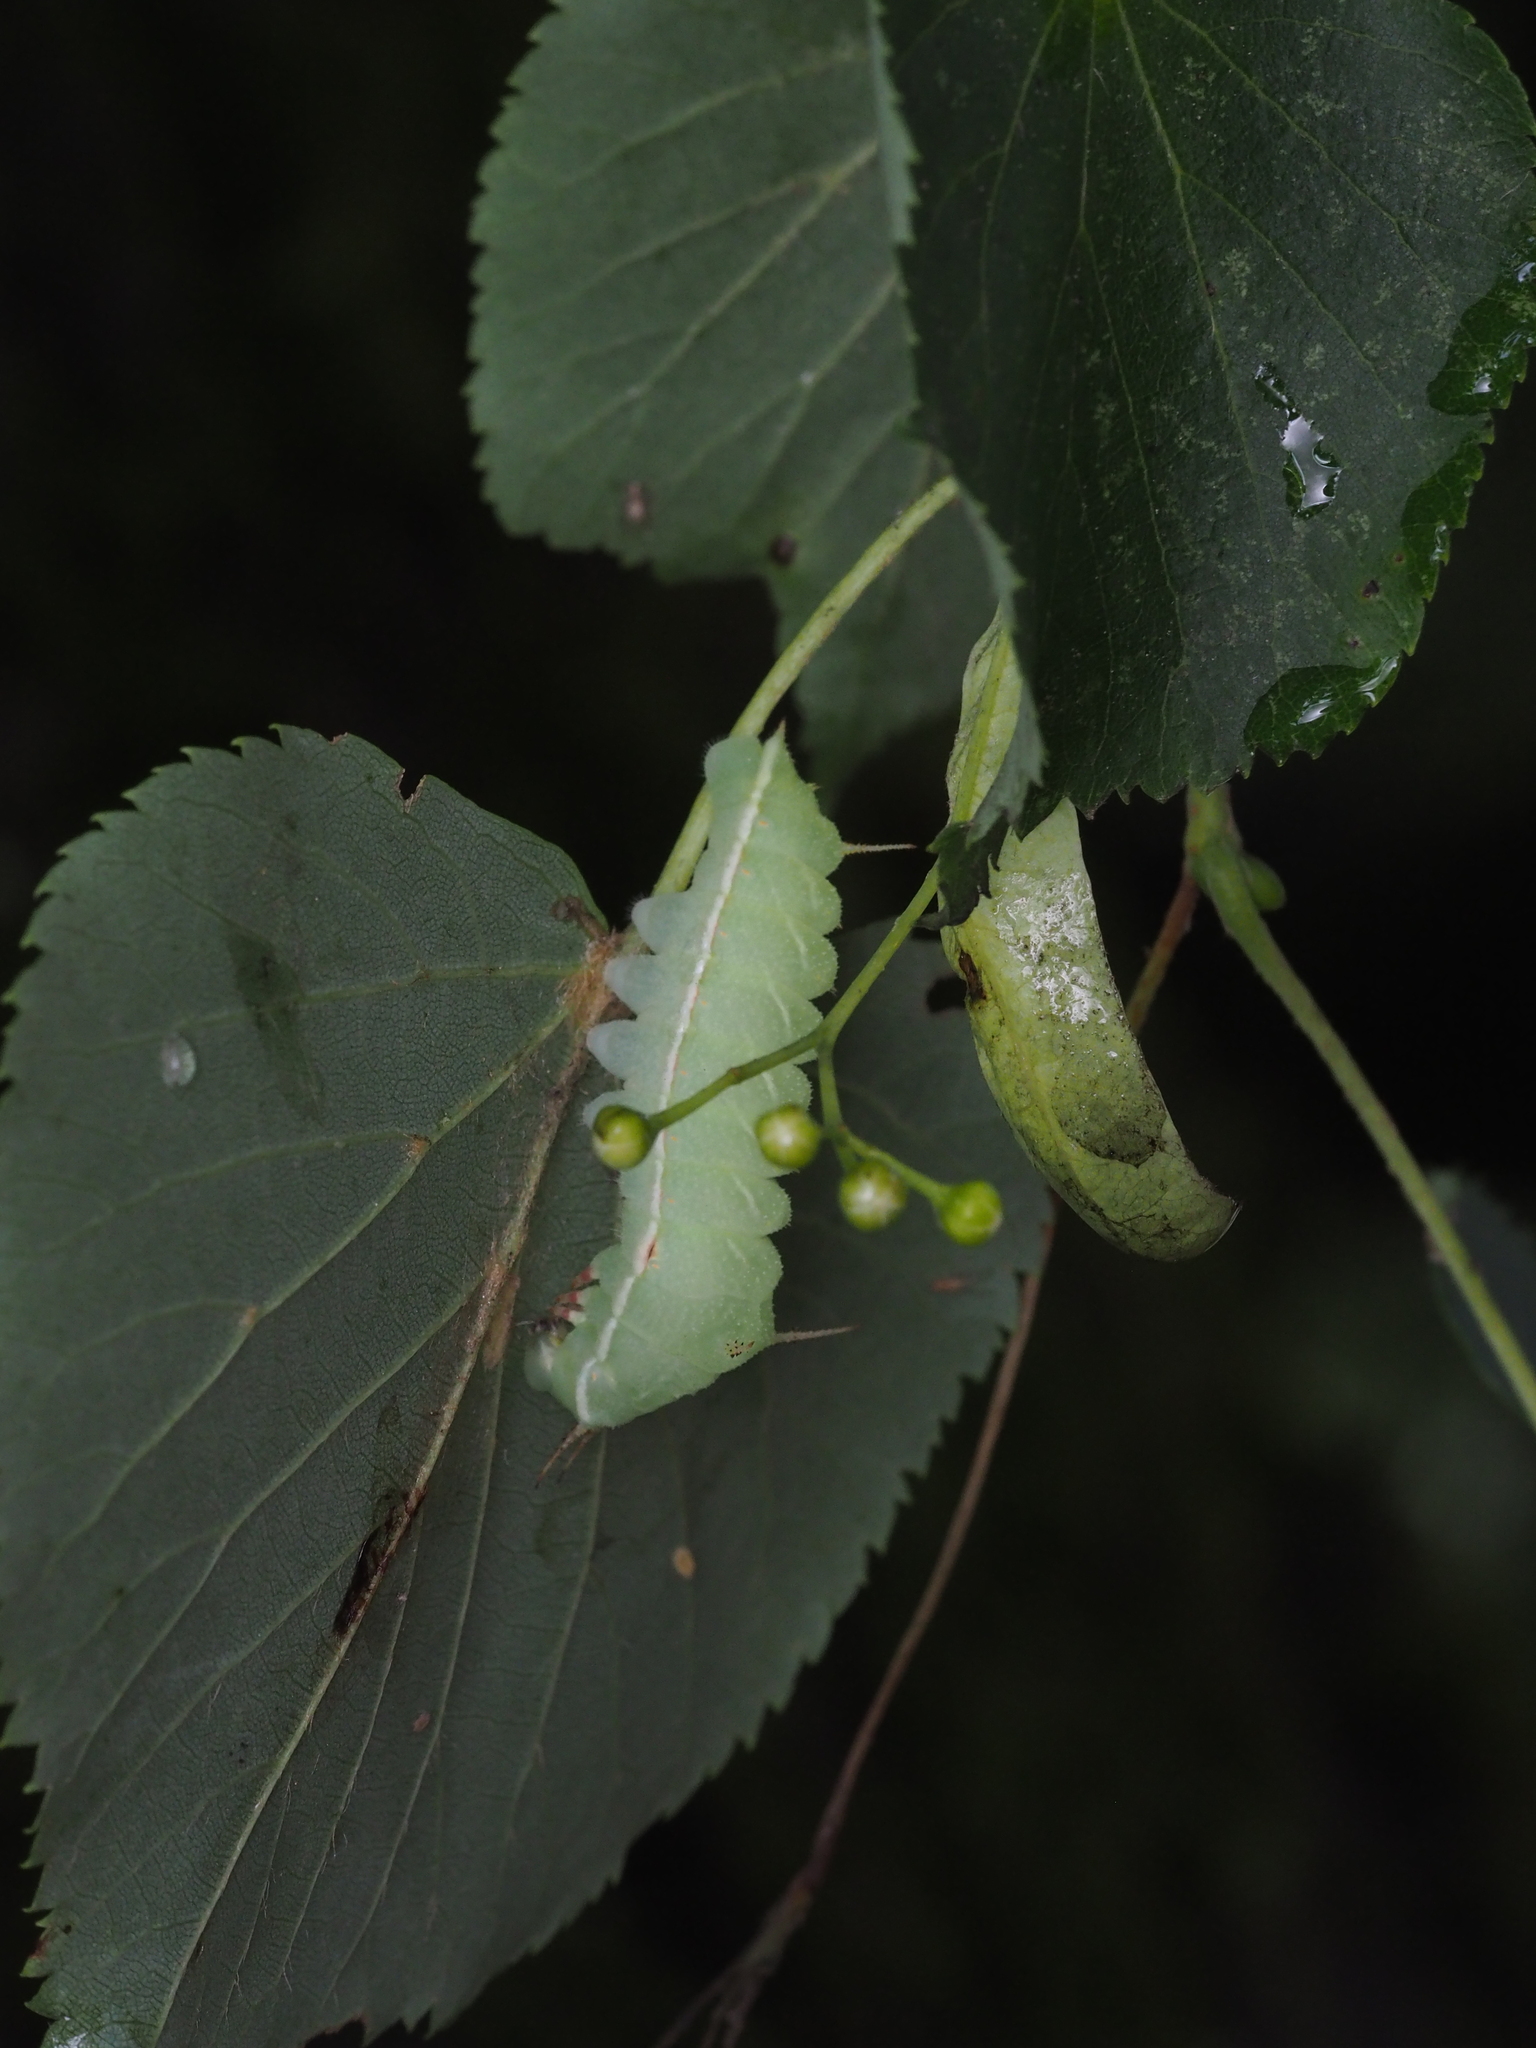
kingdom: Animalia
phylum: Arthropoda
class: Insecta
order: Lepidoptera
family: Saturniidae
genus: Aglia
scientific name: Aglia tau
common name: Tau emperor
